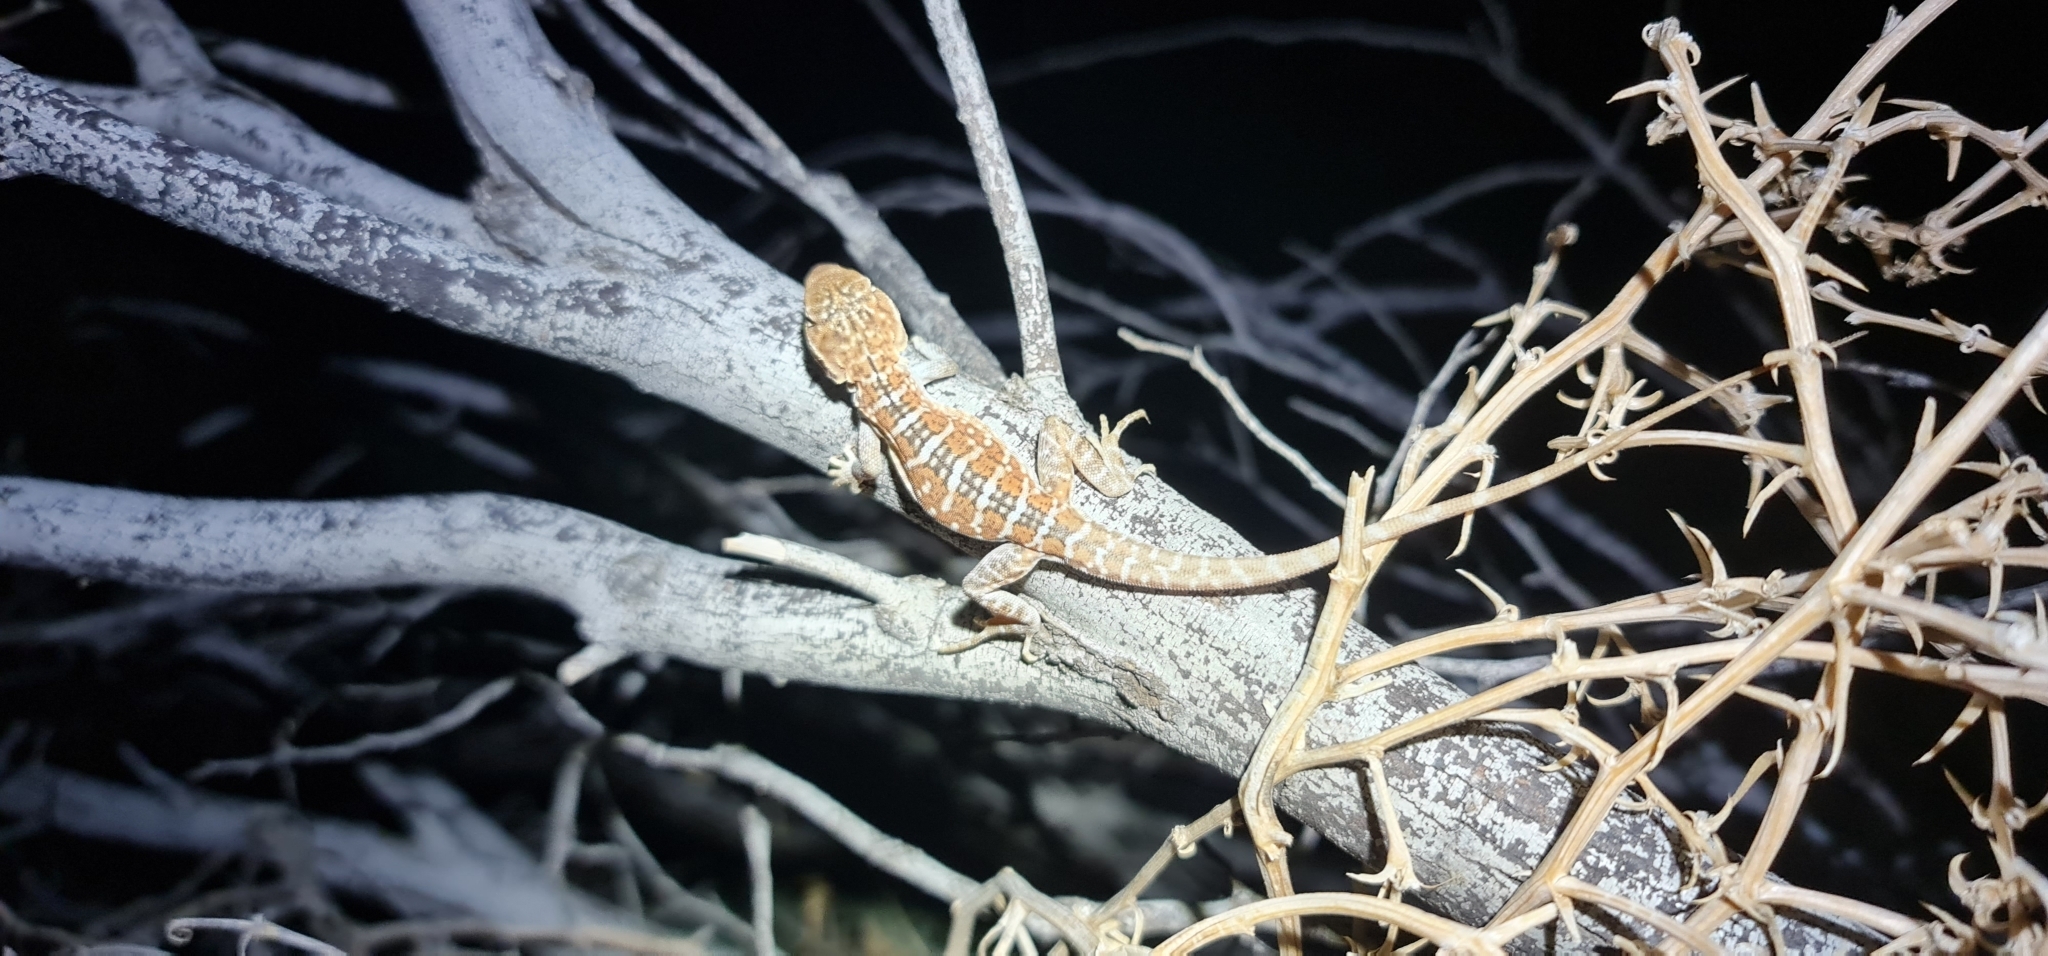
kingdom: Animalia
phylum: Chordata
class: Squamata
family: Agamidae
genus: Ctenophorus
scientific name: Ctenophorus pictus
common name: Painted dragon
